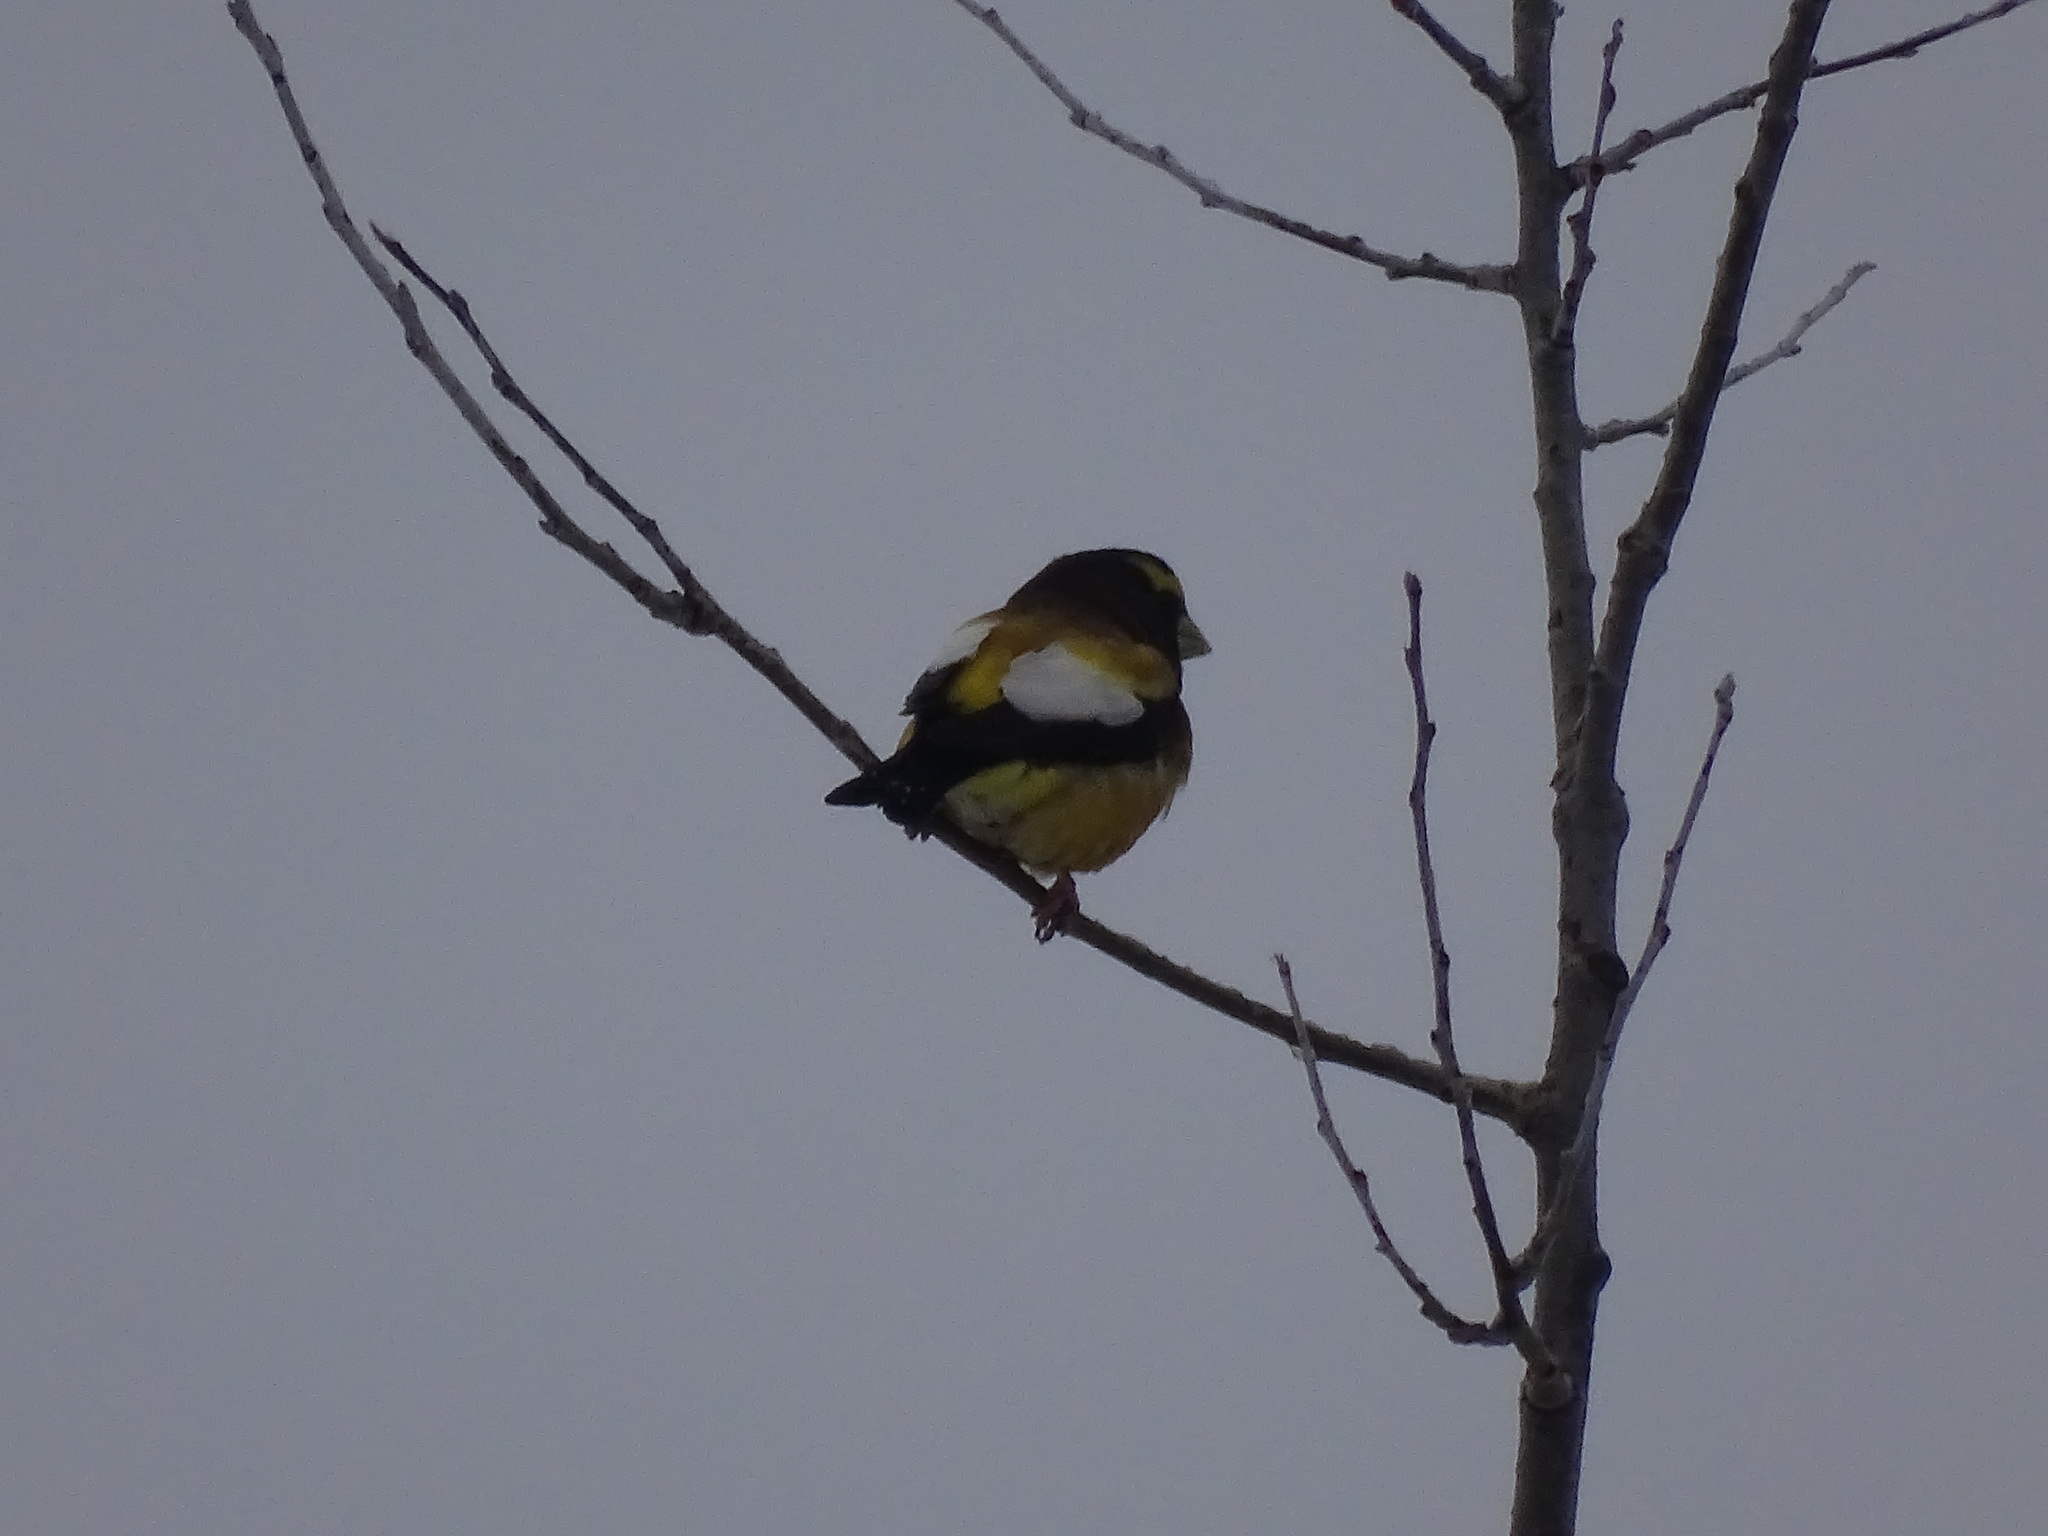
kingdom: Animalia
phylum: Chordata
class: Aves
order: Passeriformes
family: Fringillidae
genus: Hesperiphona
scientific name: Hesperiphona vespertina
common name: Evening grosbeak
